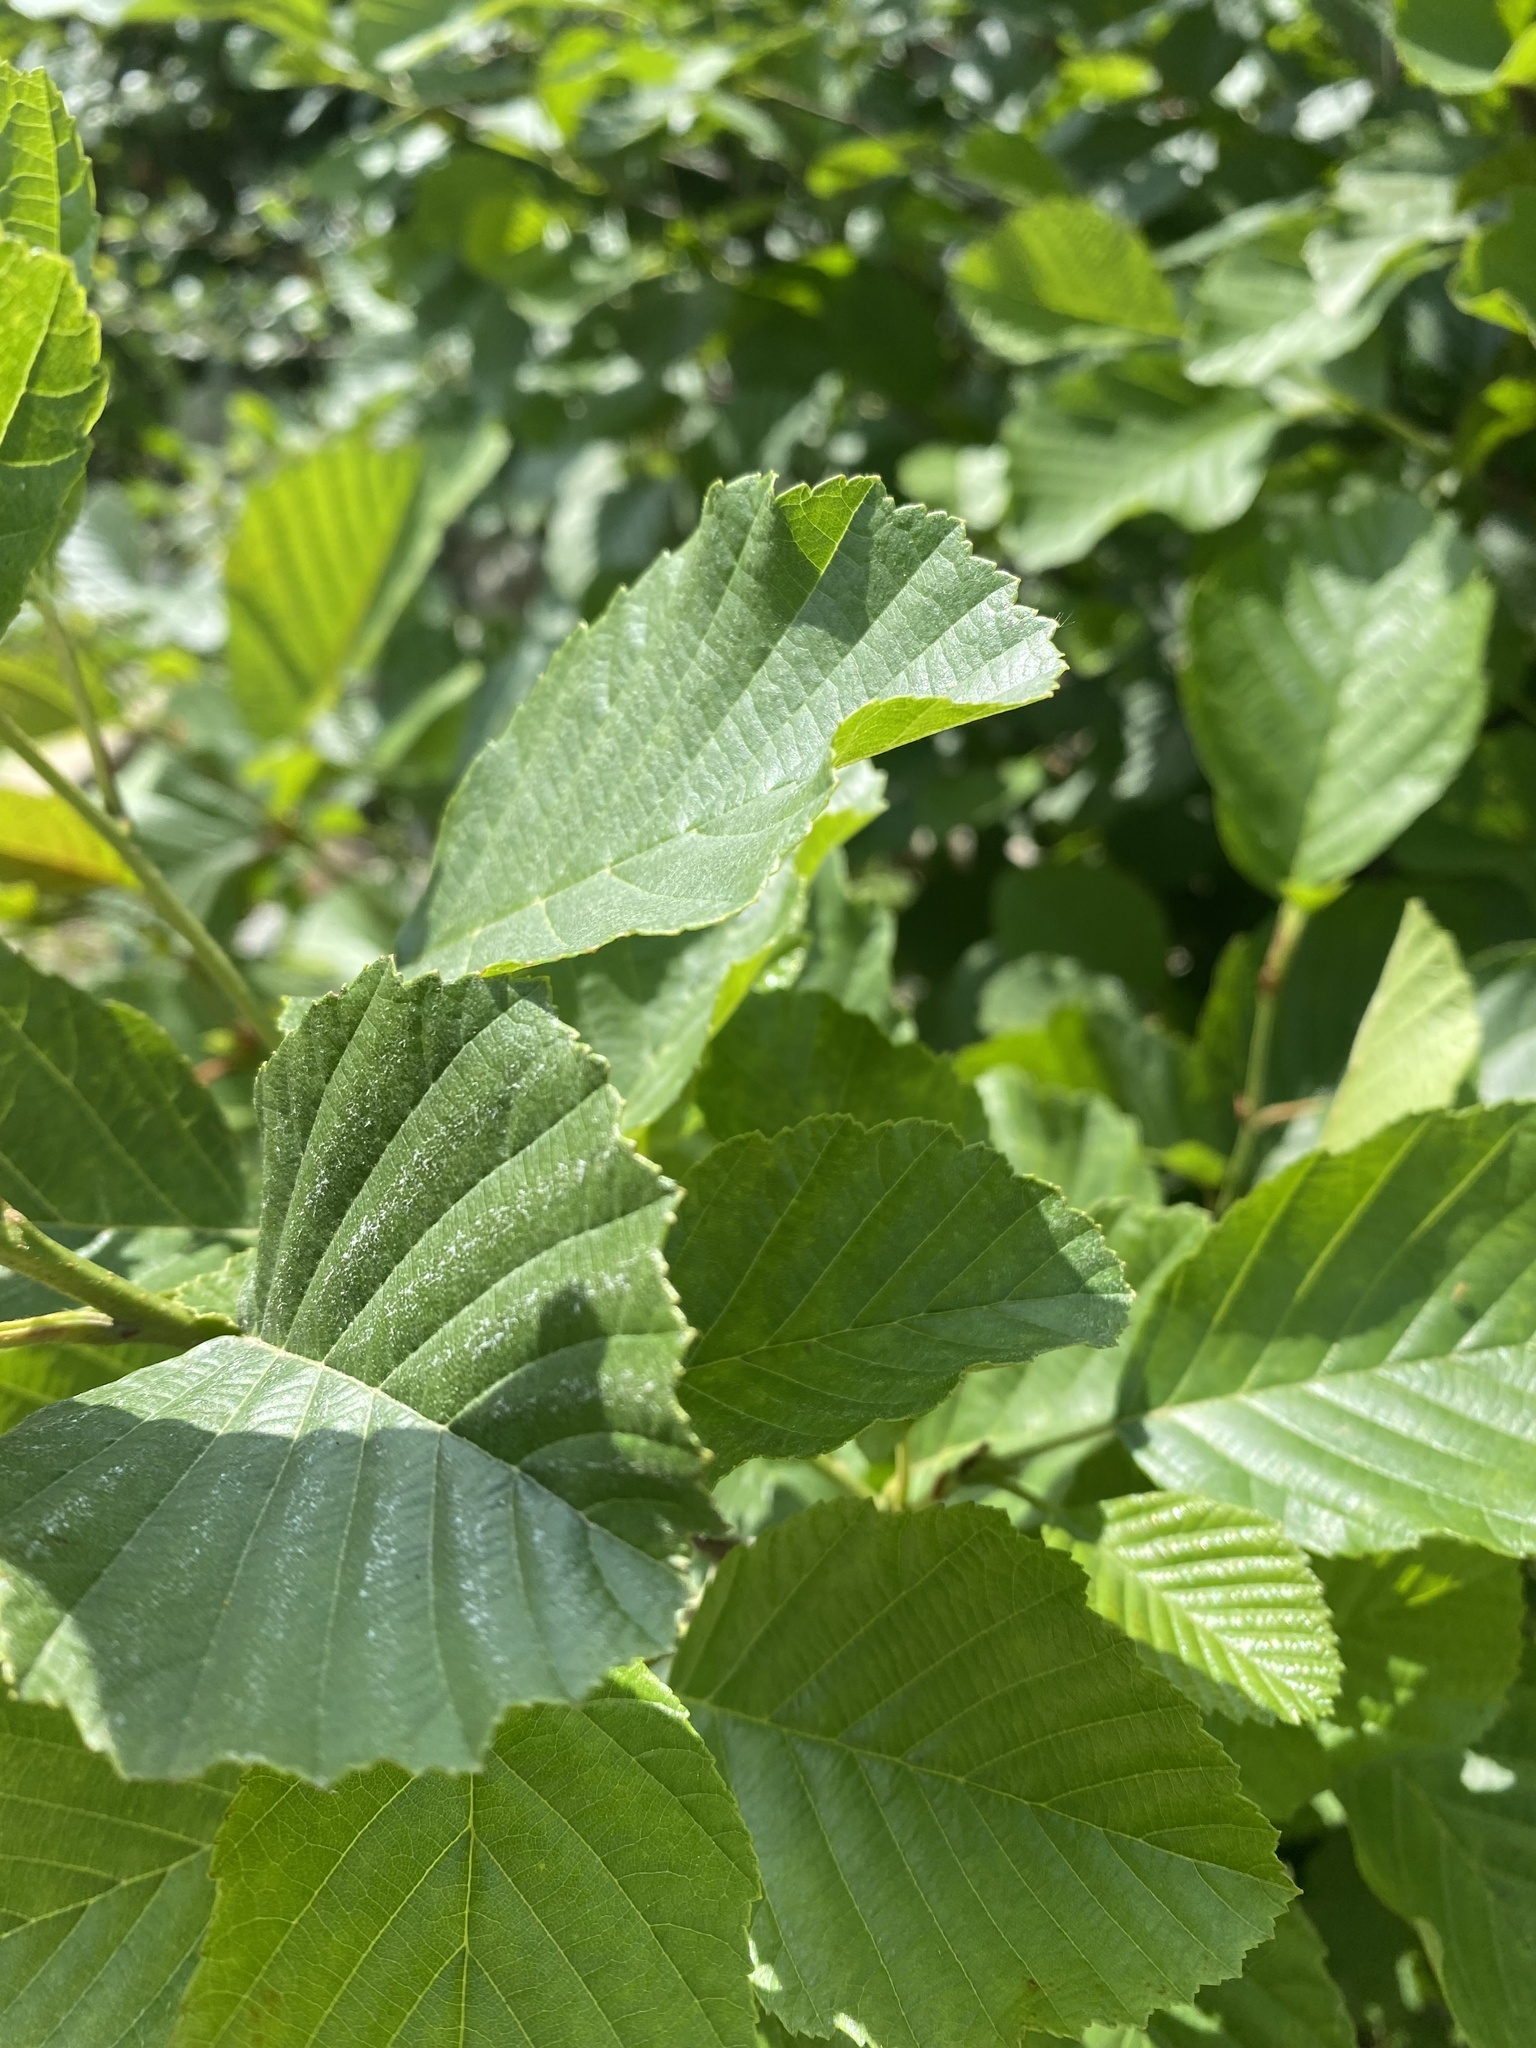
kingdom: Plantae
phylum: Tracheophyta
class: Magnoliopsida
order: Fagales
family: Betulaceae
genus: Alnus
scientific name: Alnus glutinosa
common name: Black alder
